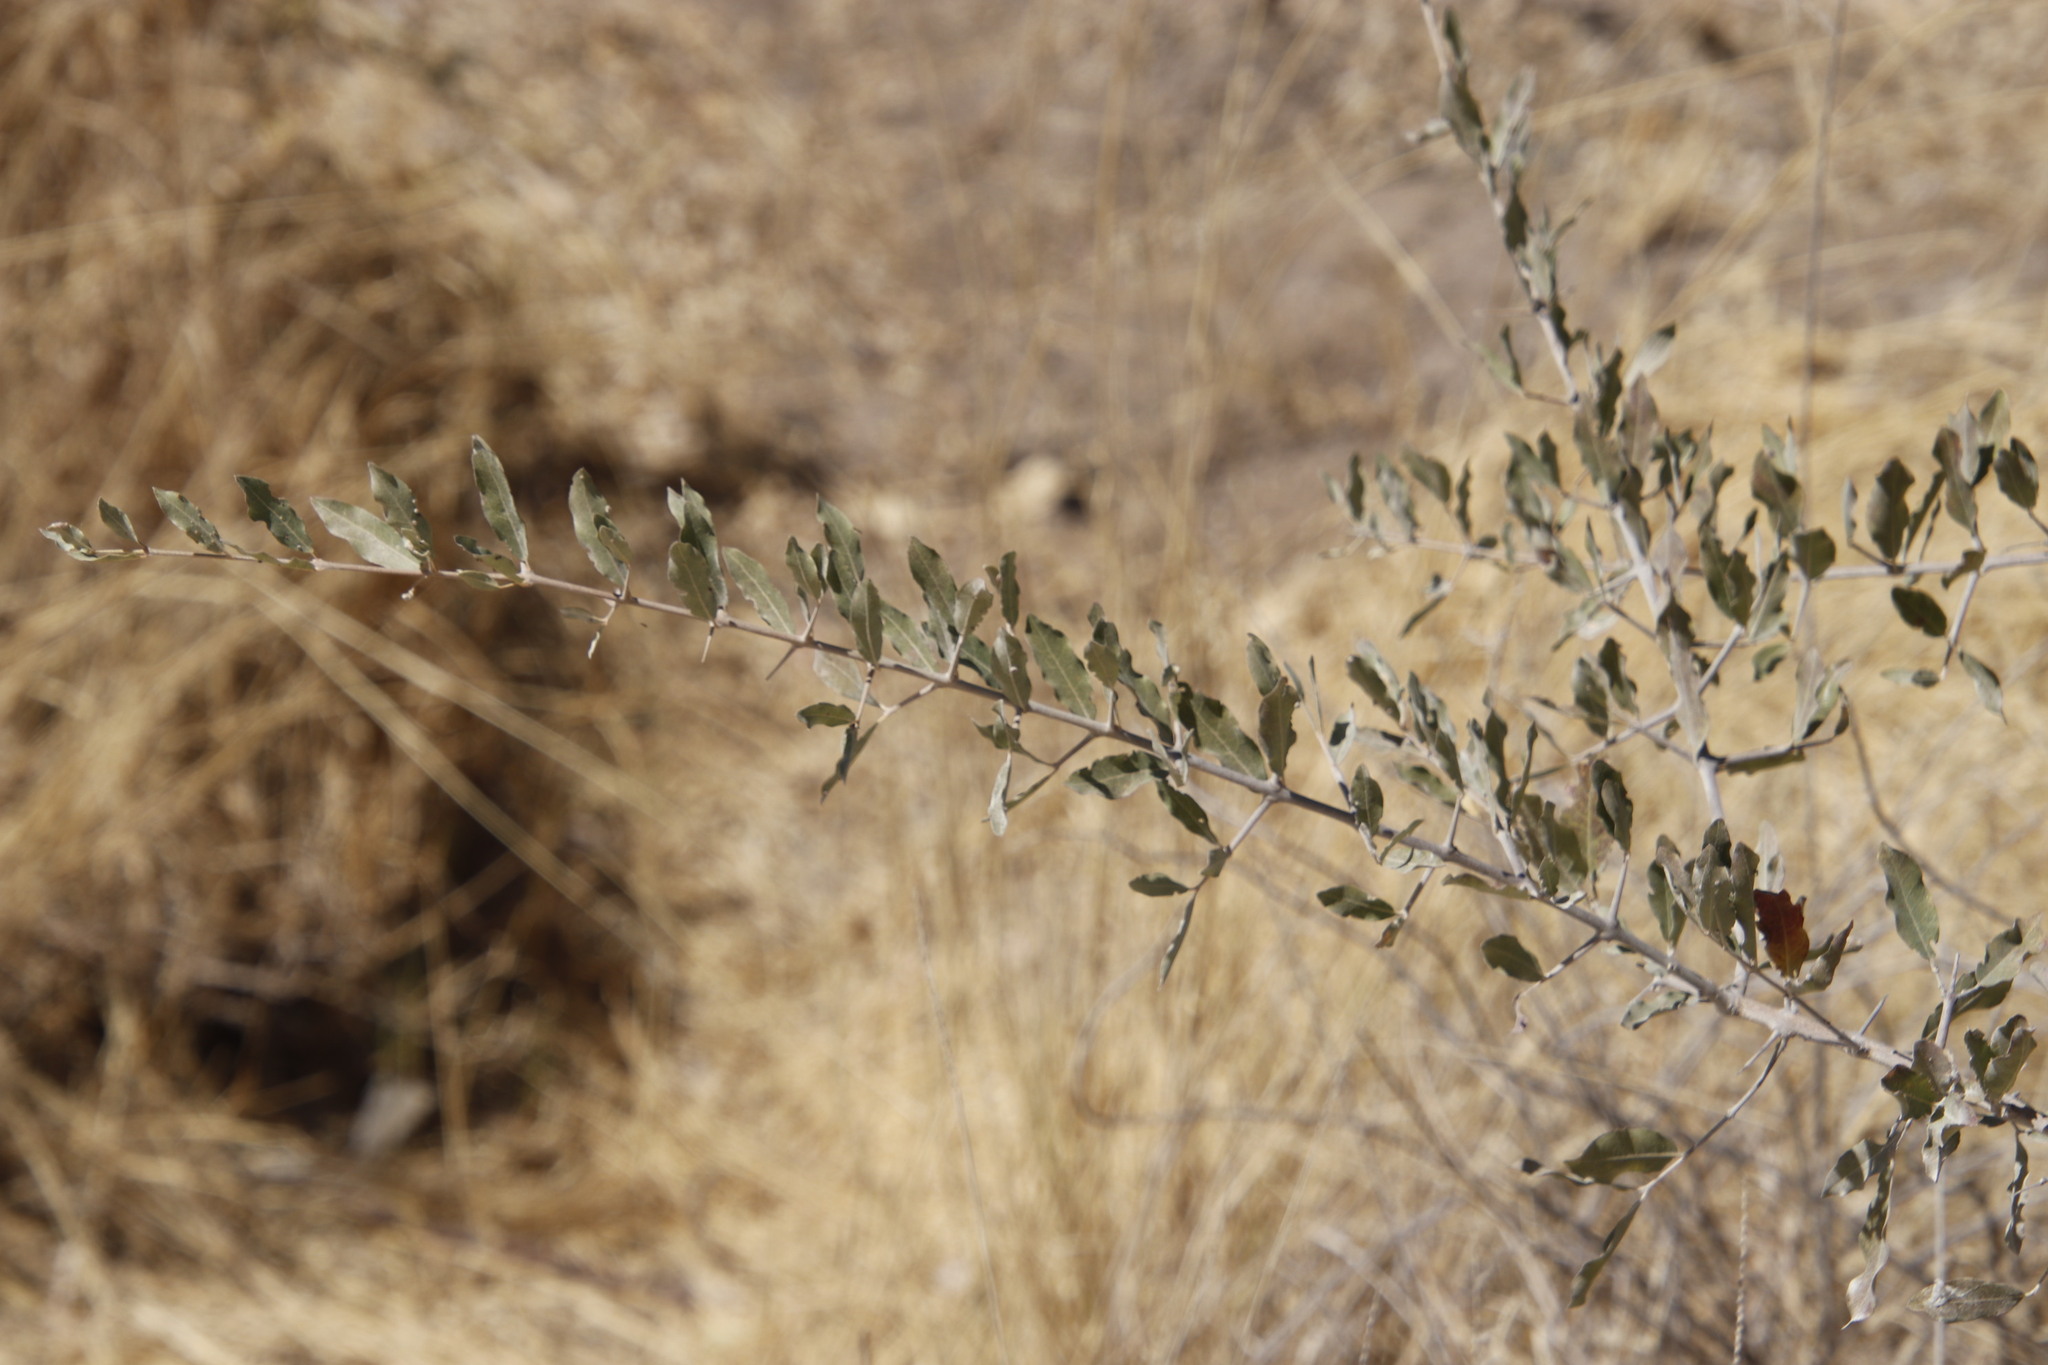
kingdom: Plantae
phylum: Tracheophyta
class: Magnoliopsida
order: Myrtales
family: Combretaceae
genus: Combretum
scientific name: Combretum imberbe
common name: Leadwood
